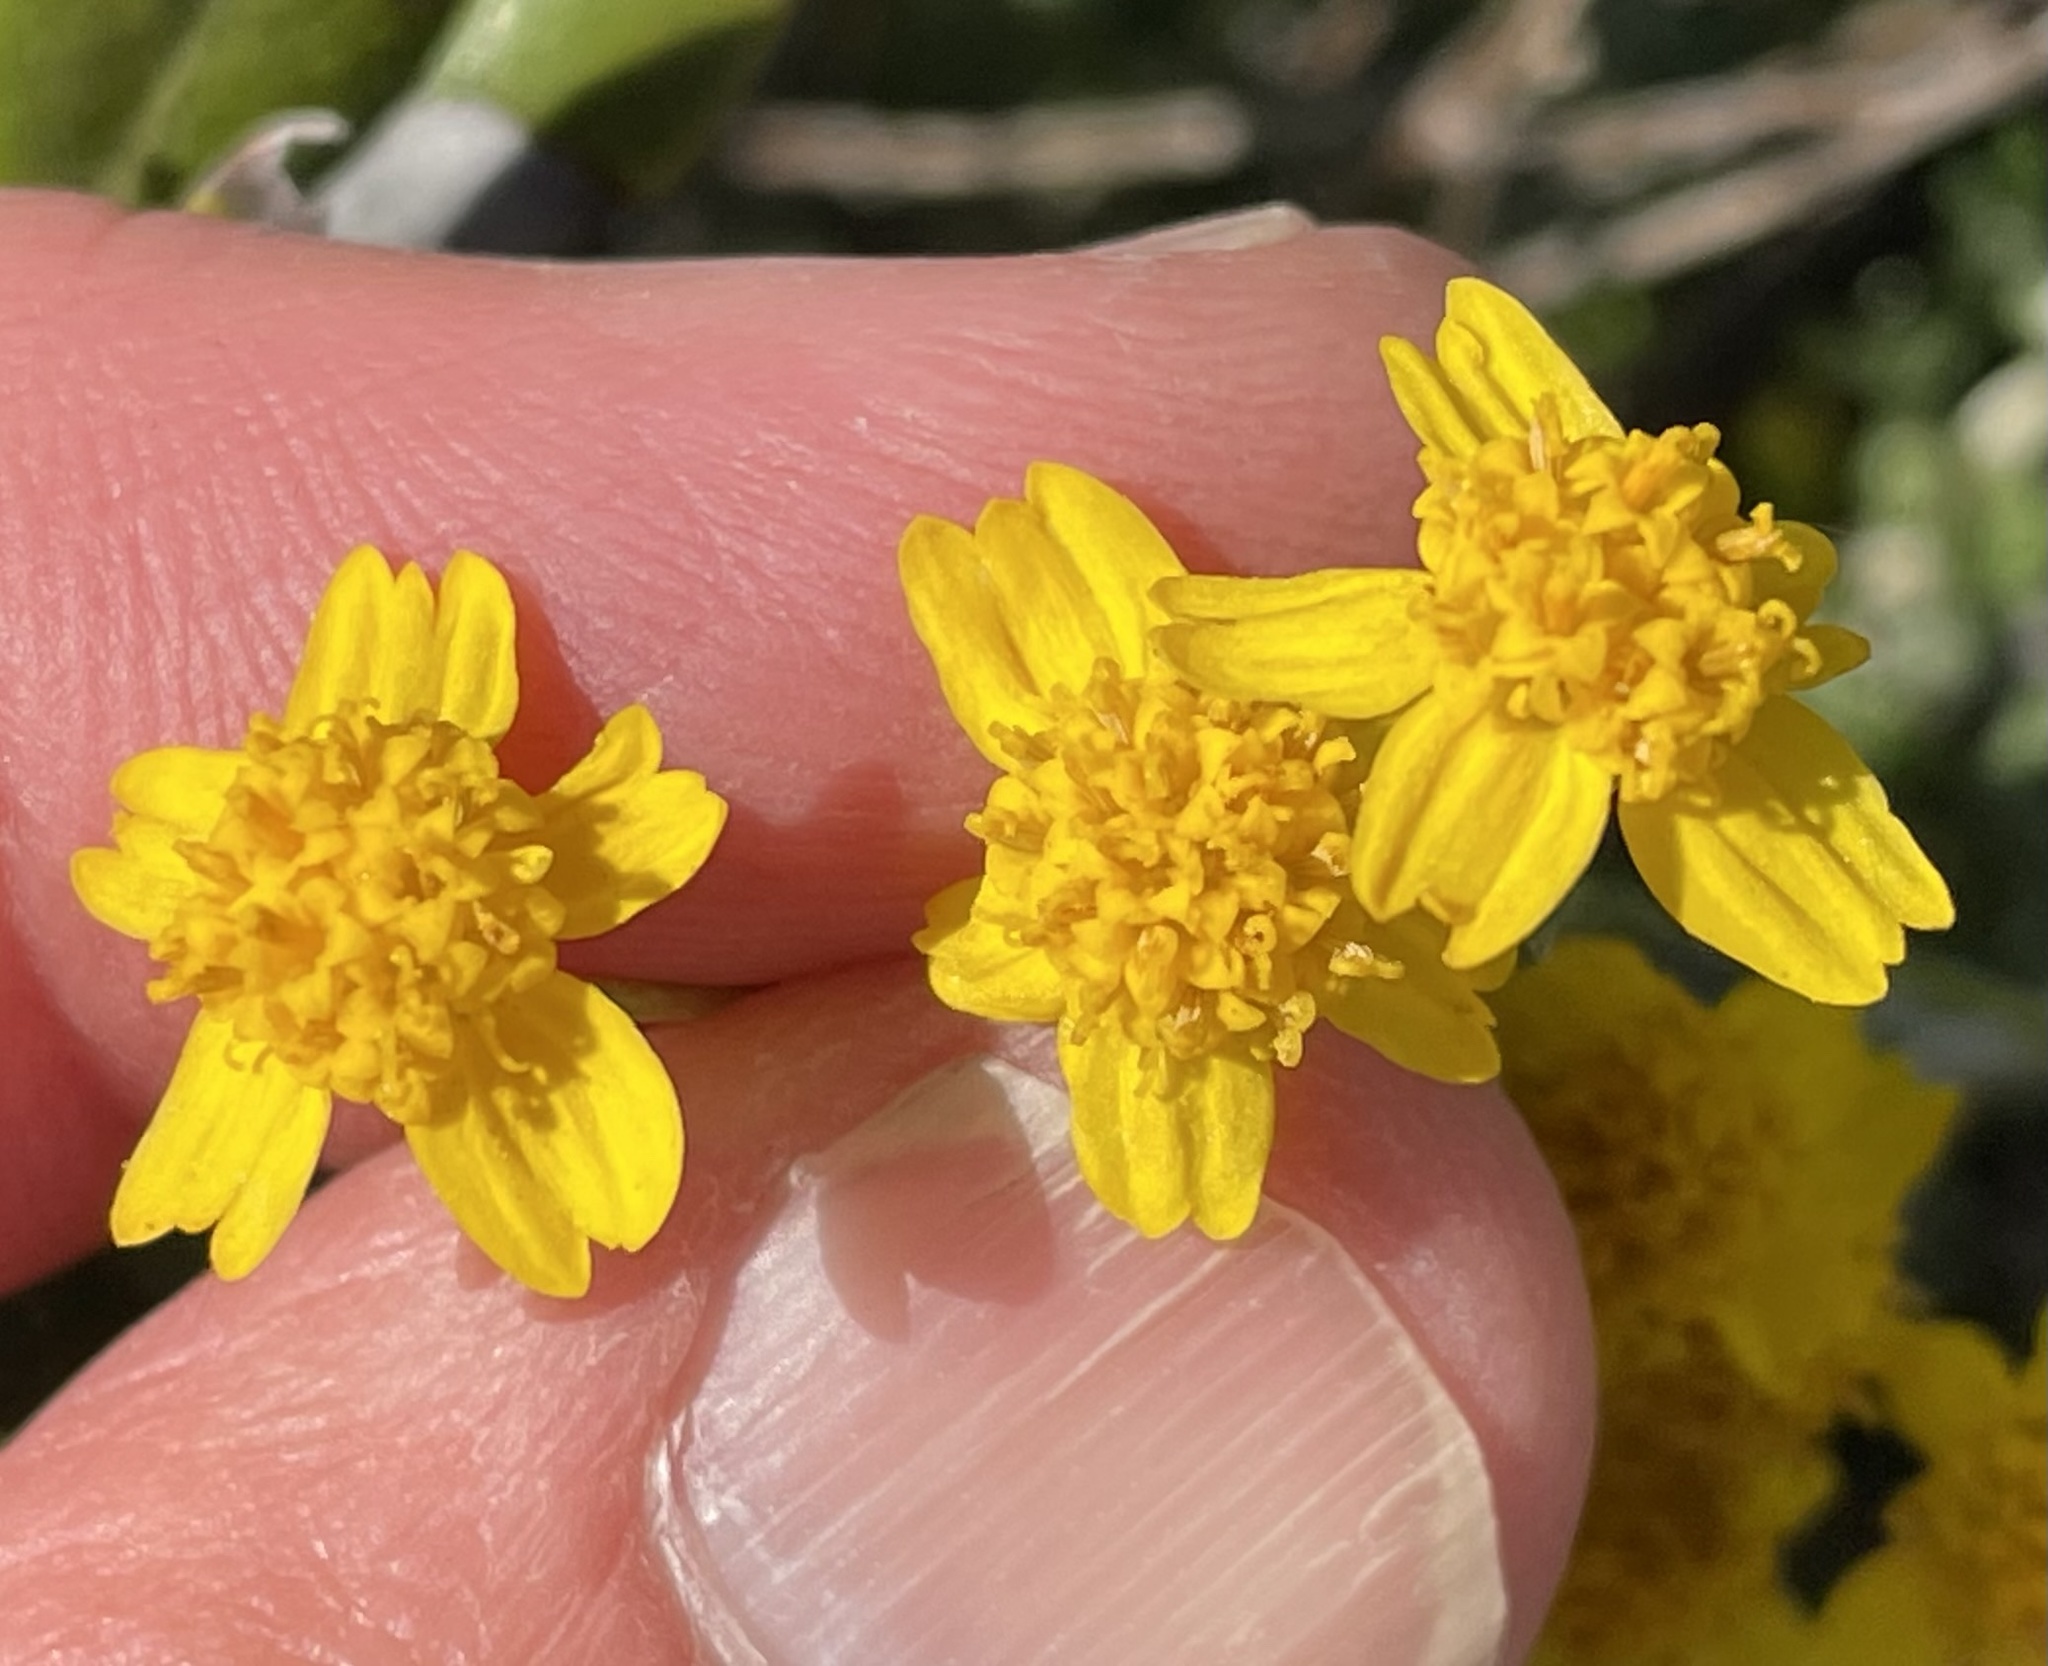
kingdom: Plantae
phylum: Tracheophyta
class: Magnoliopsida
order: Asterales
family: Asteraceae
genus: Eriophyllum
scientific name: Eriophyllum confertiflorum
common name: Golden-yarrow
